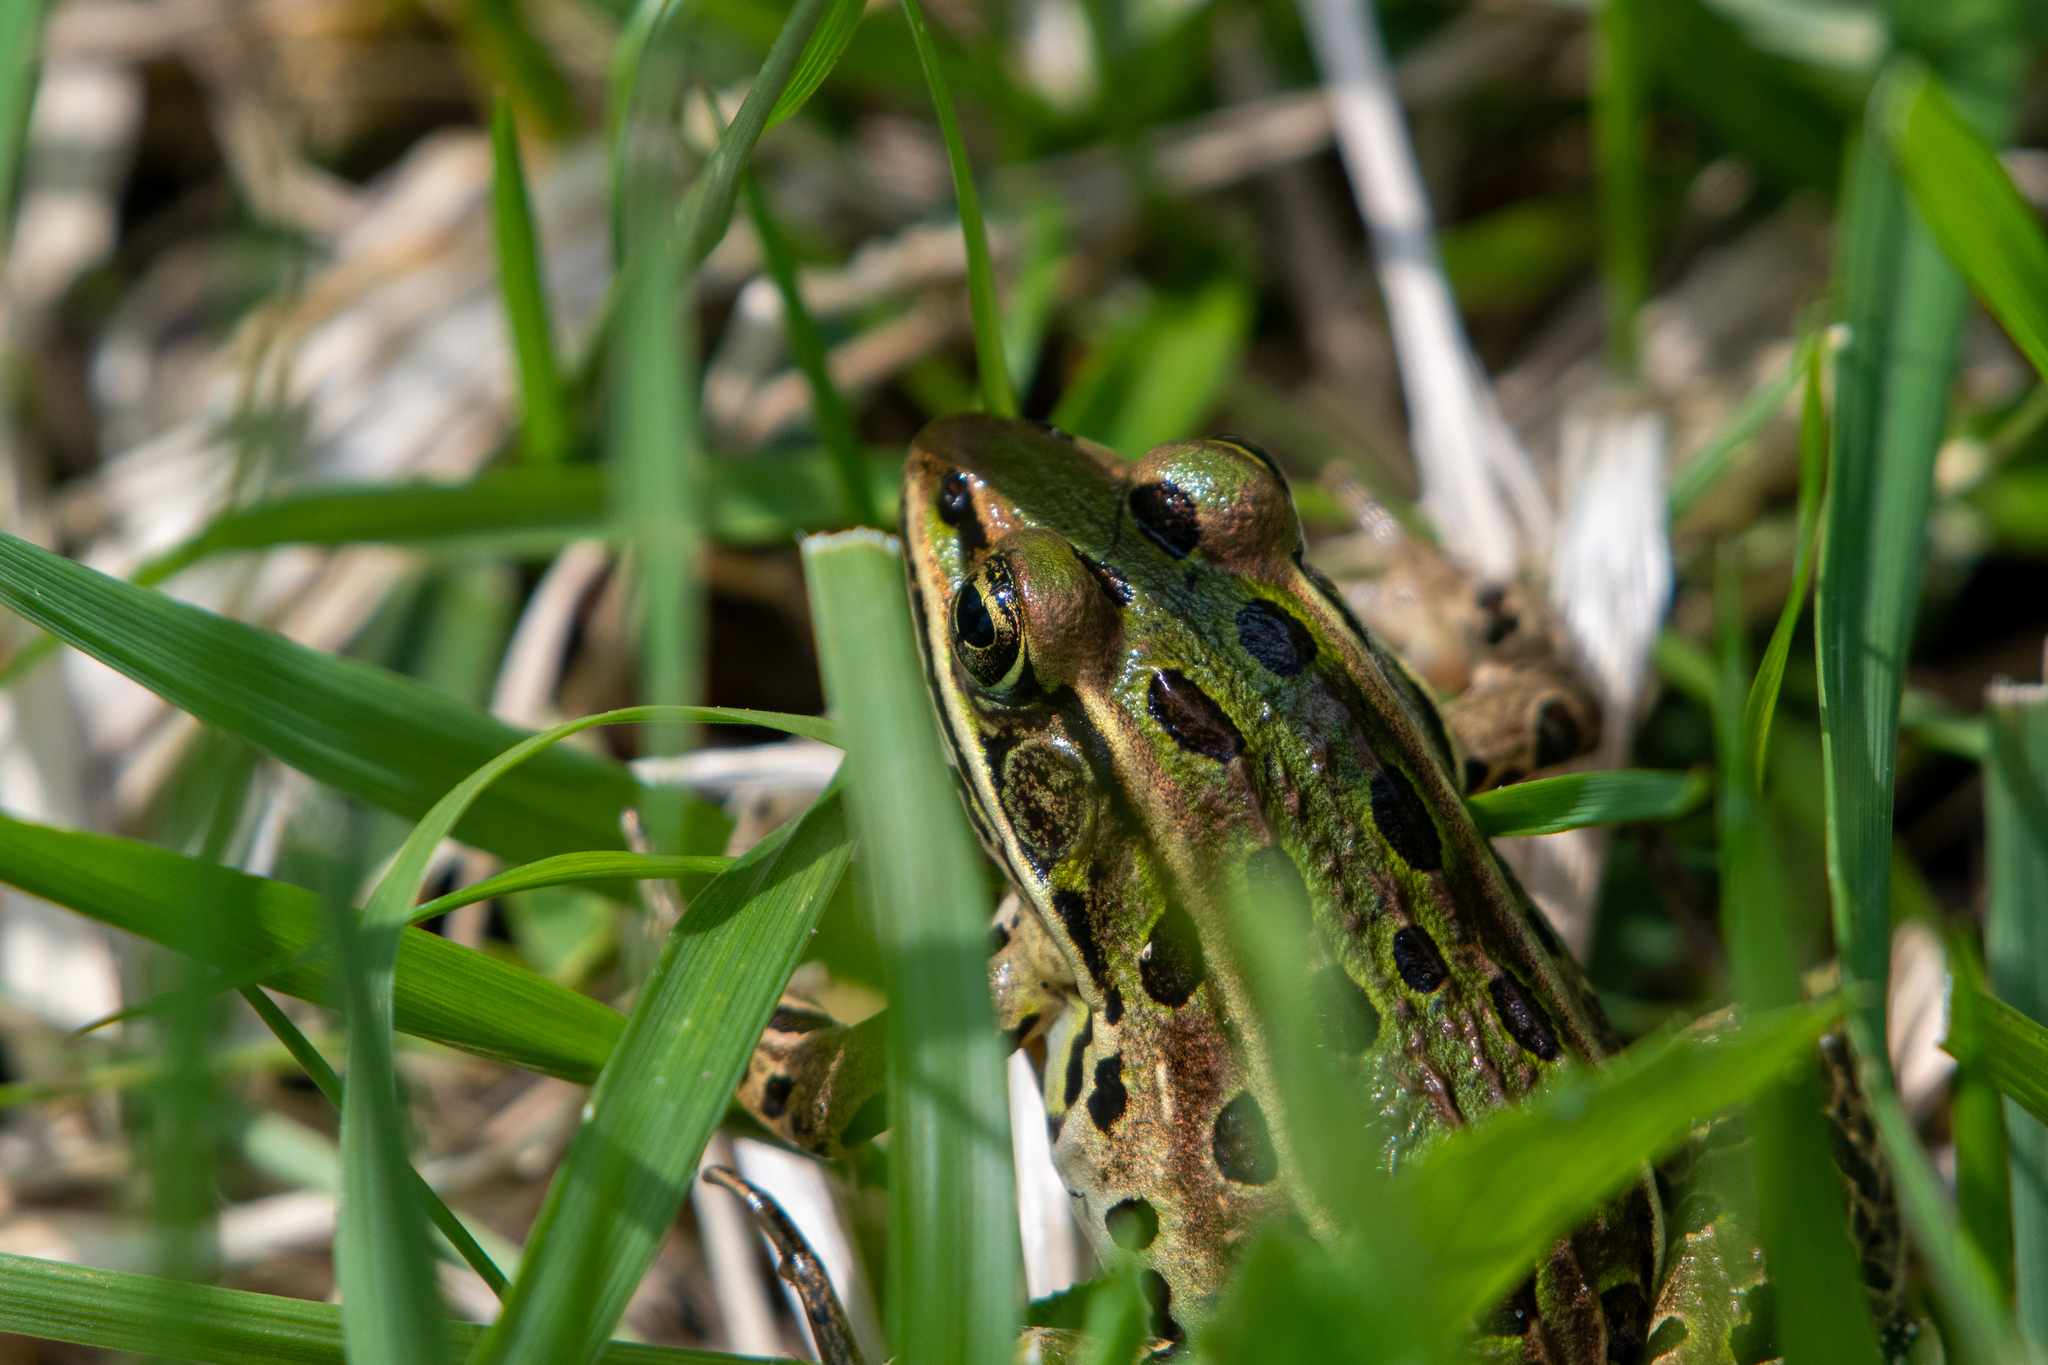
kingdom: Animalia
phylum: Chordata
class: Amphibia
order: Anura
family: Ranidae
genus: Lithobates
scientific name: Lithobates pipiens
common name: Northern leopard frog
